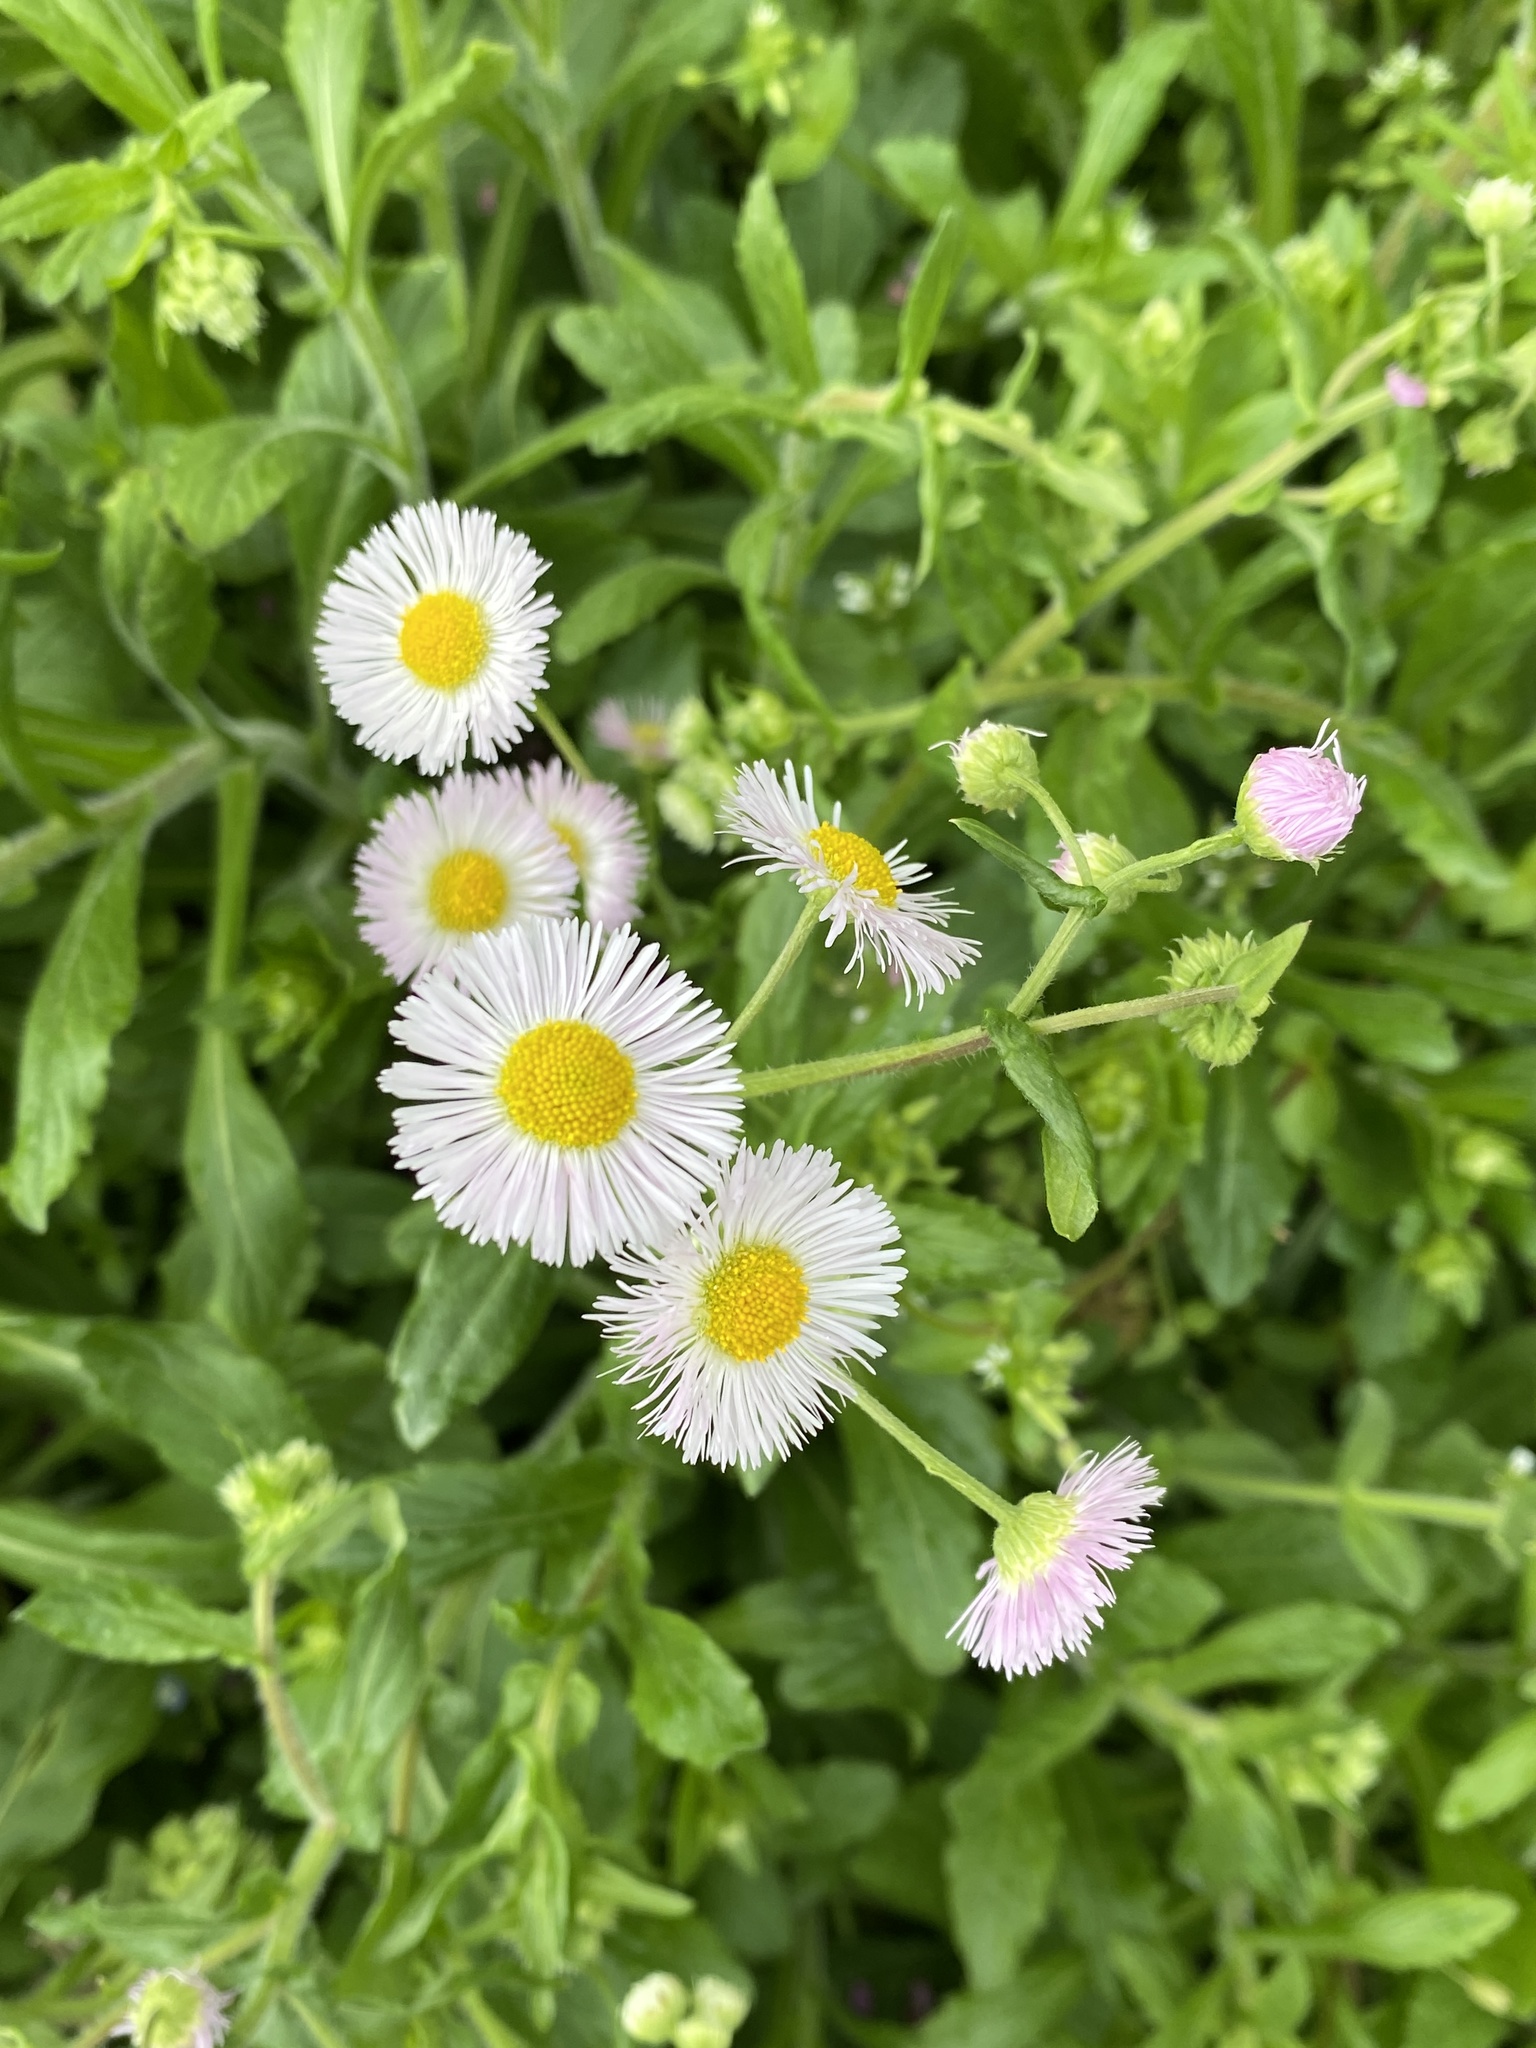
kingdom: Plantae
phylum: Tracheophyta
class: Magnoliopsida
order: Asterales
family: Asteraceae
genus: Erigeron
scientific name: Erigeron philadelphicus
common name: Robin's-plantain
